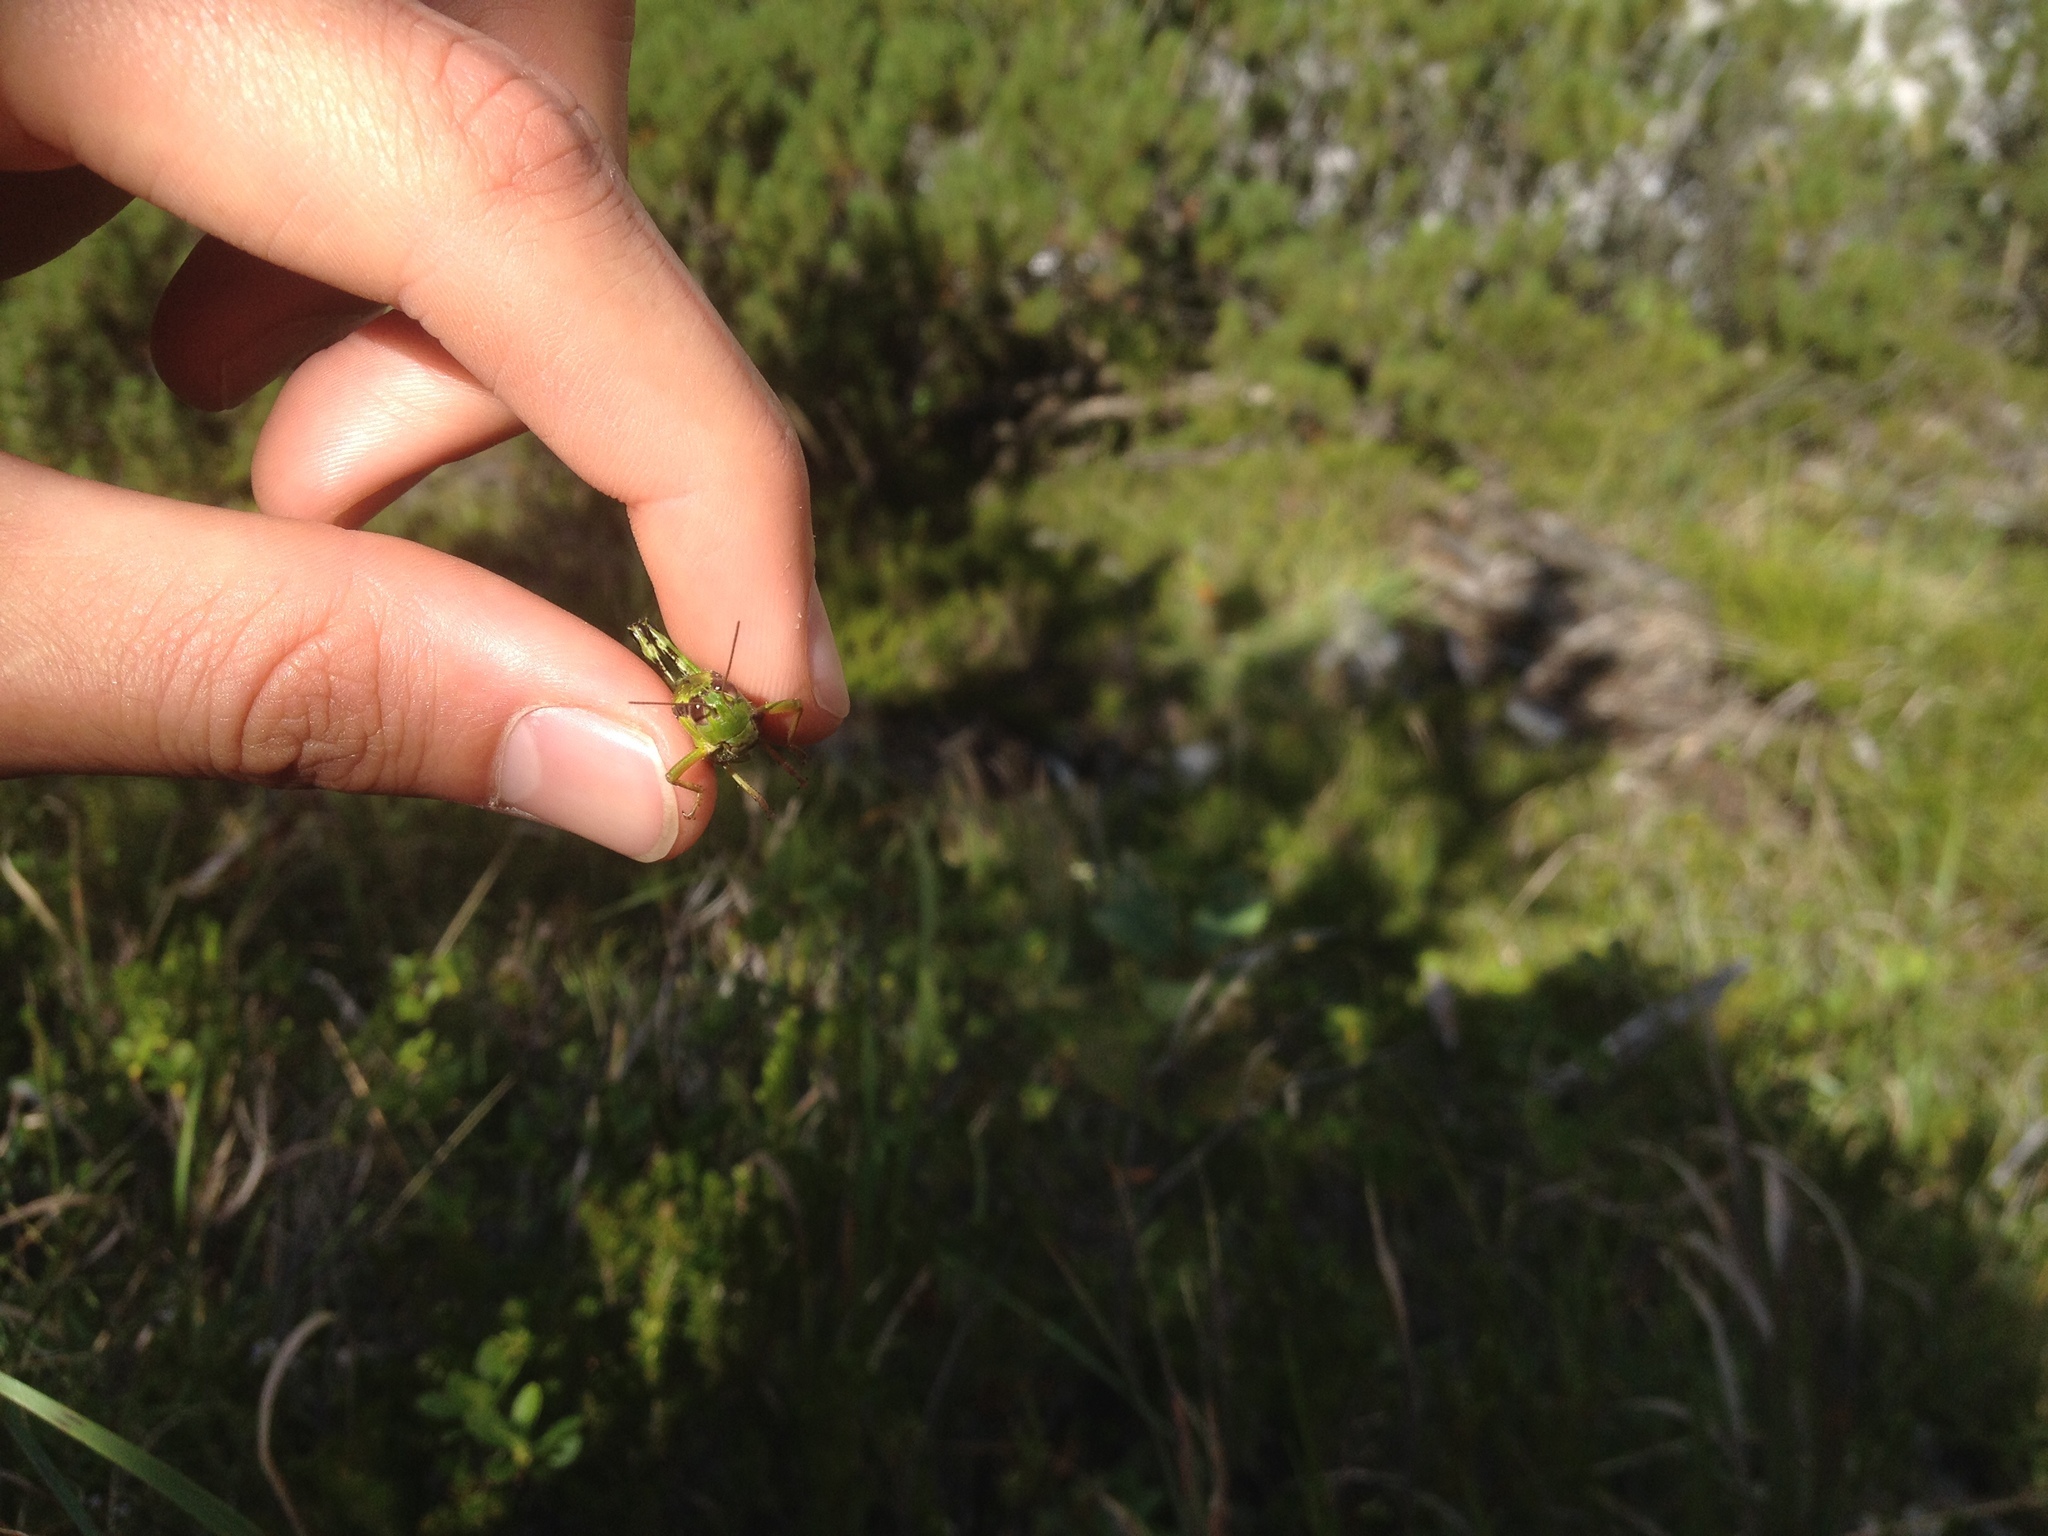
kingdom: Animalia
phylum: Arthropoda
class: Insecta
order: Orthoptera
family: Acrididae
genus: Miramella
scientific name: Miramella alpina
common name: Green mountain grasshopper
